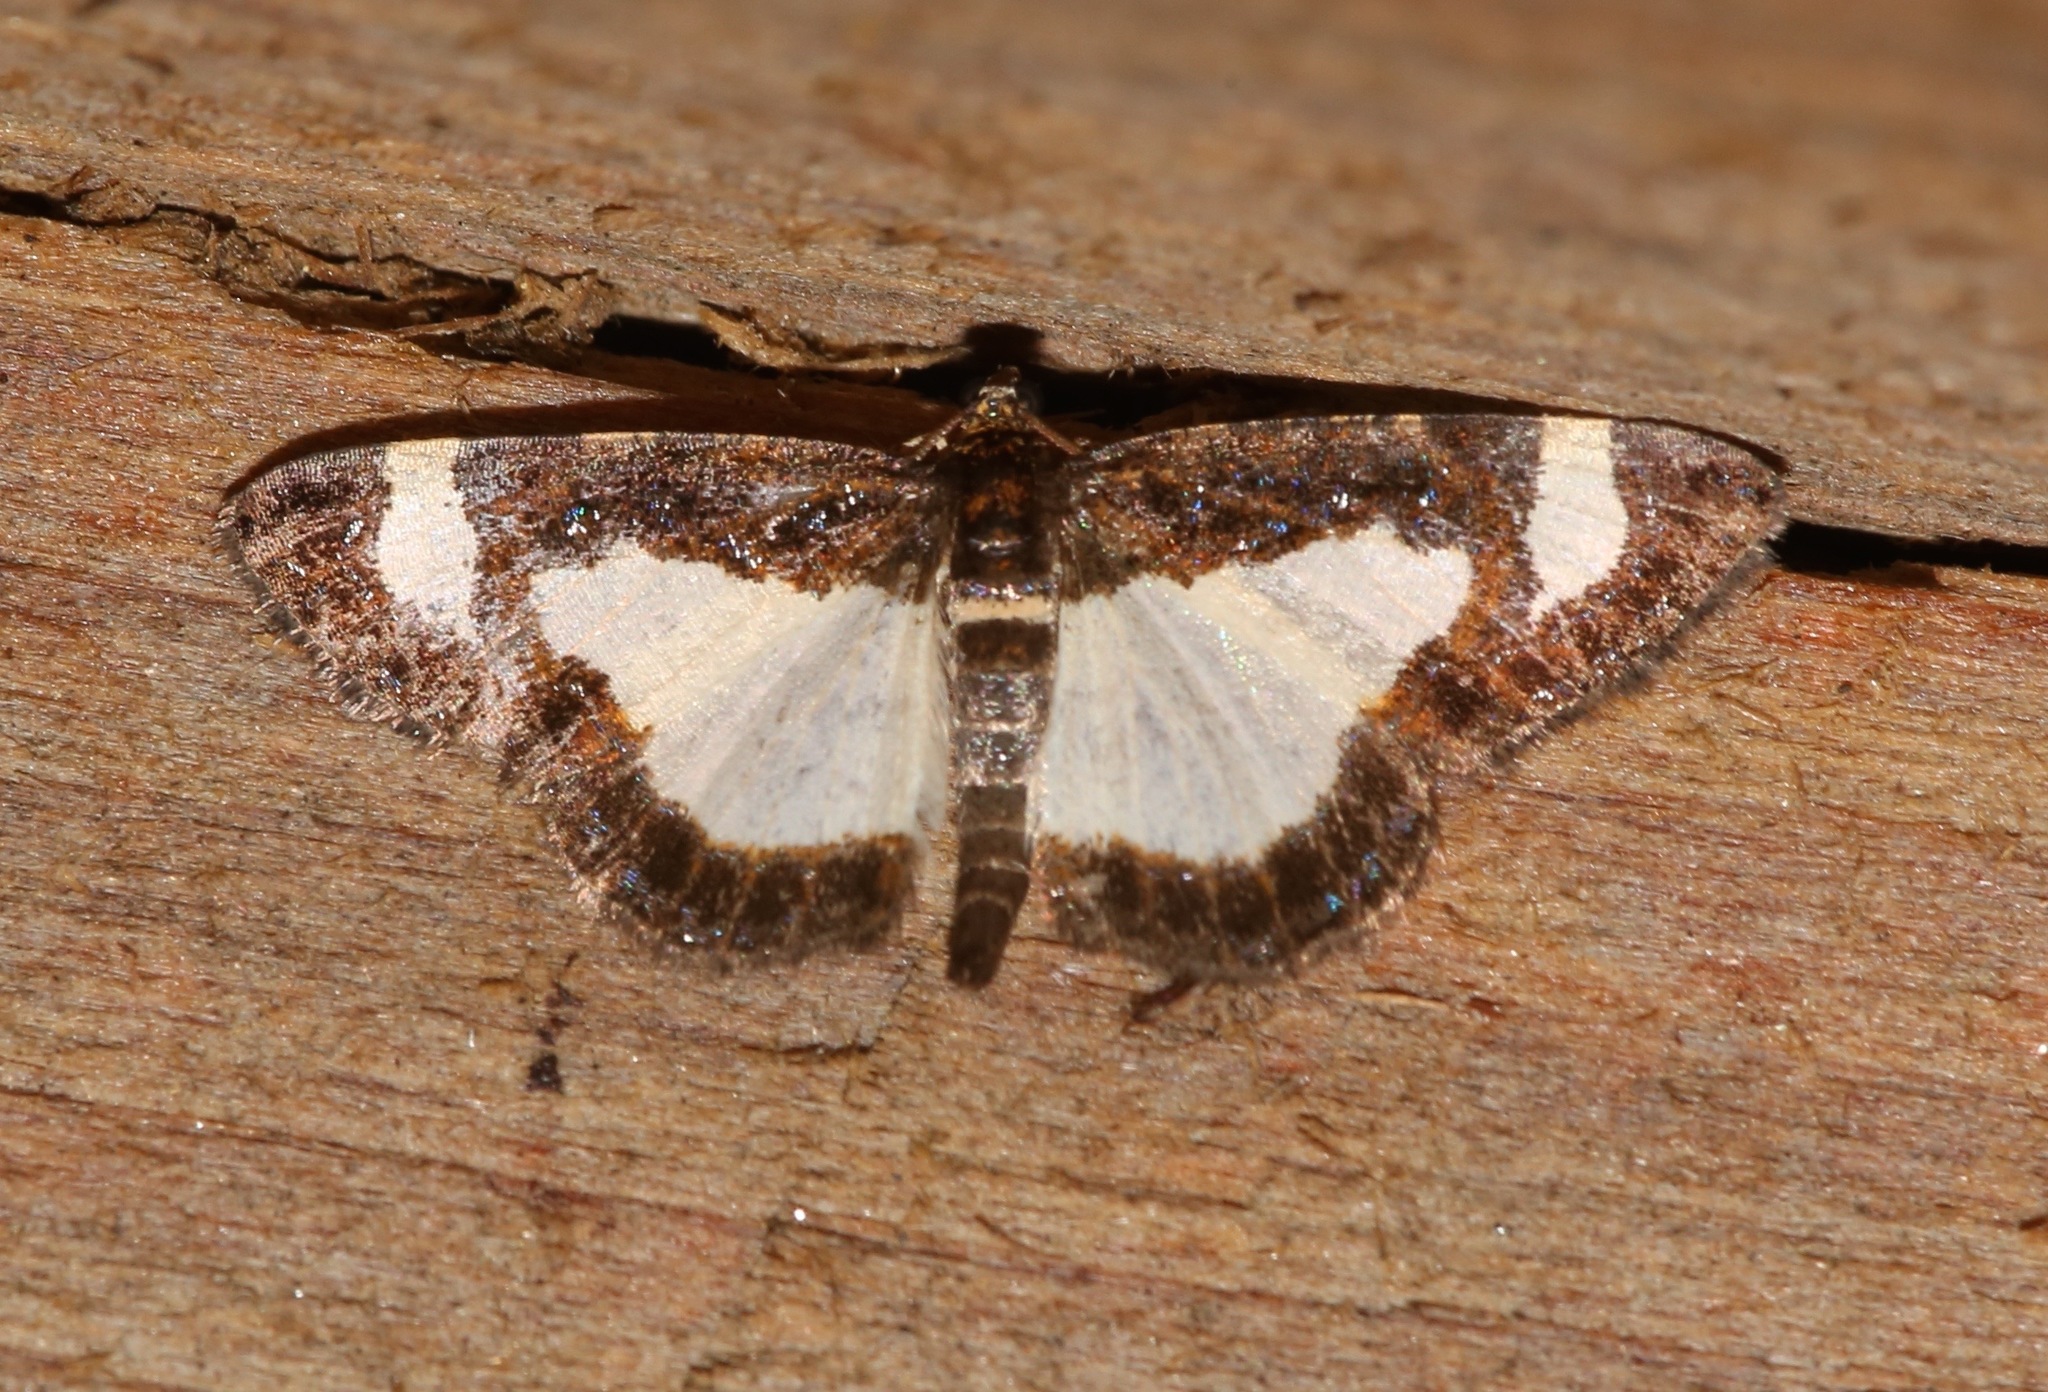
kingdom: Animalia
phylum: Arthropoda
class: Insecta
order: Lepidoptera
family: Geometridae
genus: Heliomata
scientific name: Heliomata cycladata
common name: Common spring moth
